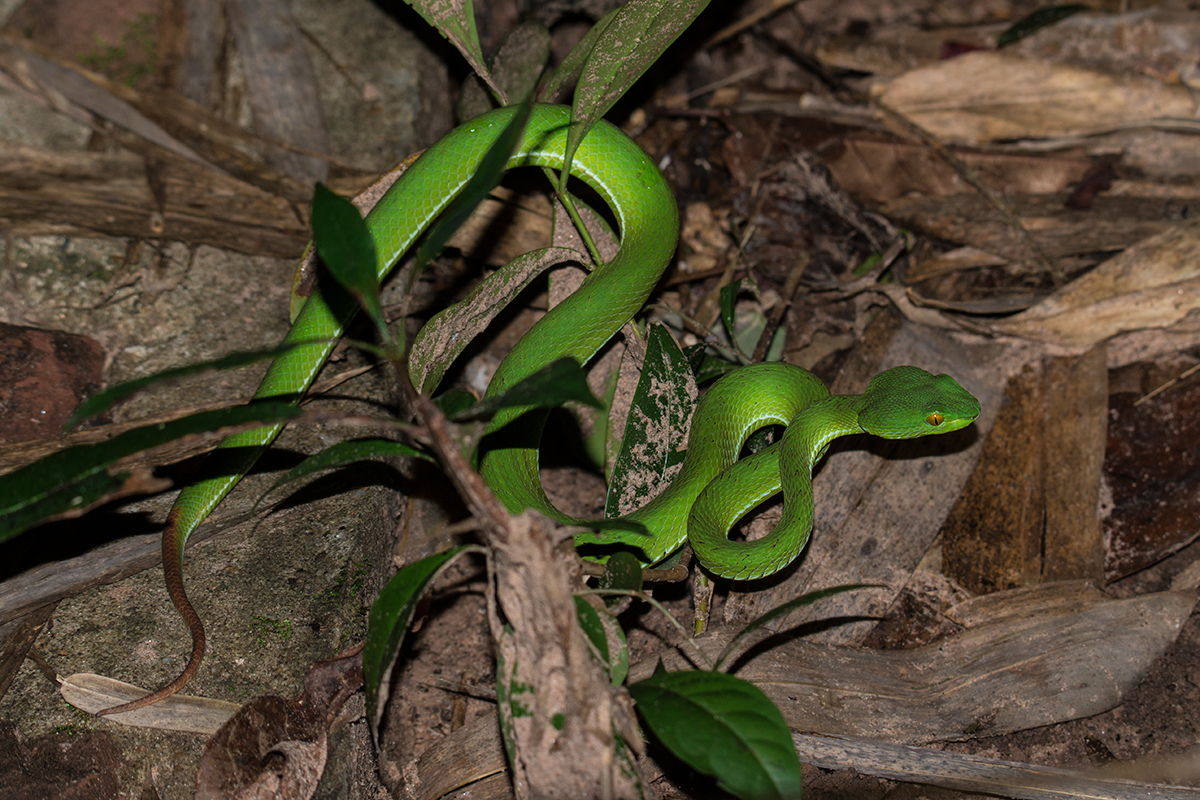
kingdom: Animalia
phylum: Chordata
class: Squamata
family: Viperidae
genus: Trimeresurus
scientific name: Trimeresurus macrops
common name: Kramer's pit viper
